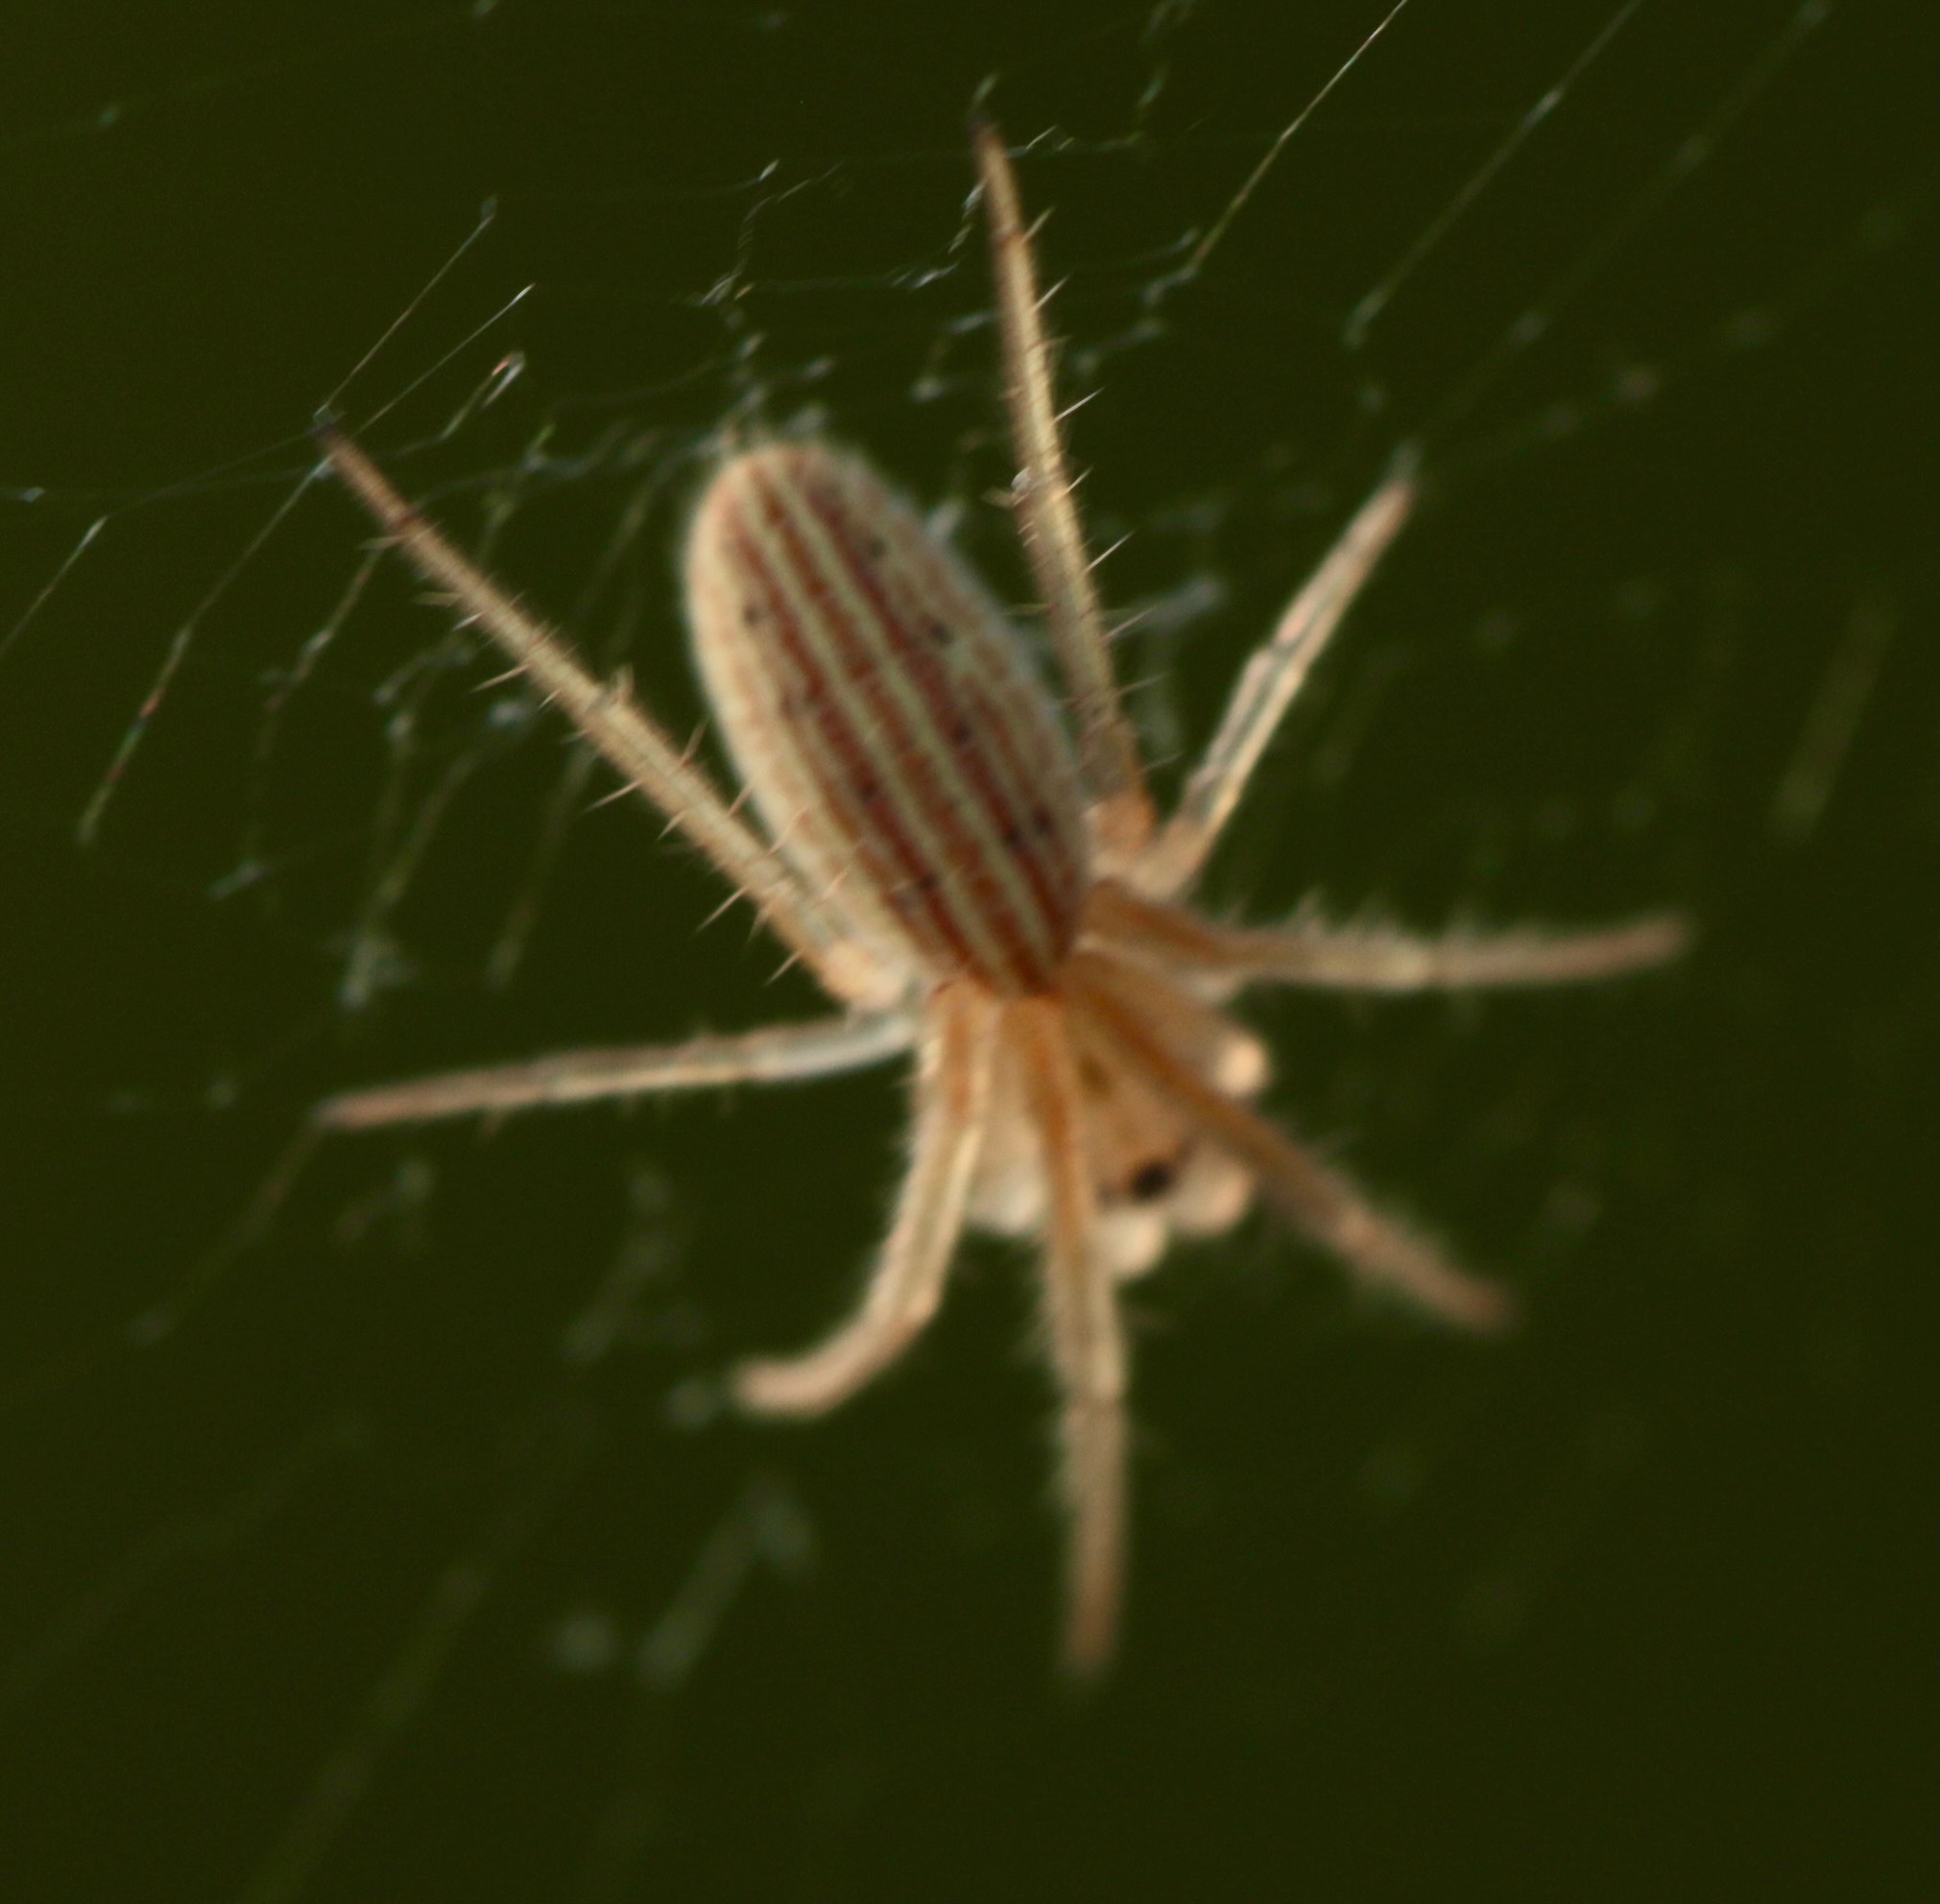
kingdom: Animalia
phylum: Arthropoda
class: Arachnida
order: Araneae
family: Araneidae
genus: Larinia
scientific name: Larinia borealis
